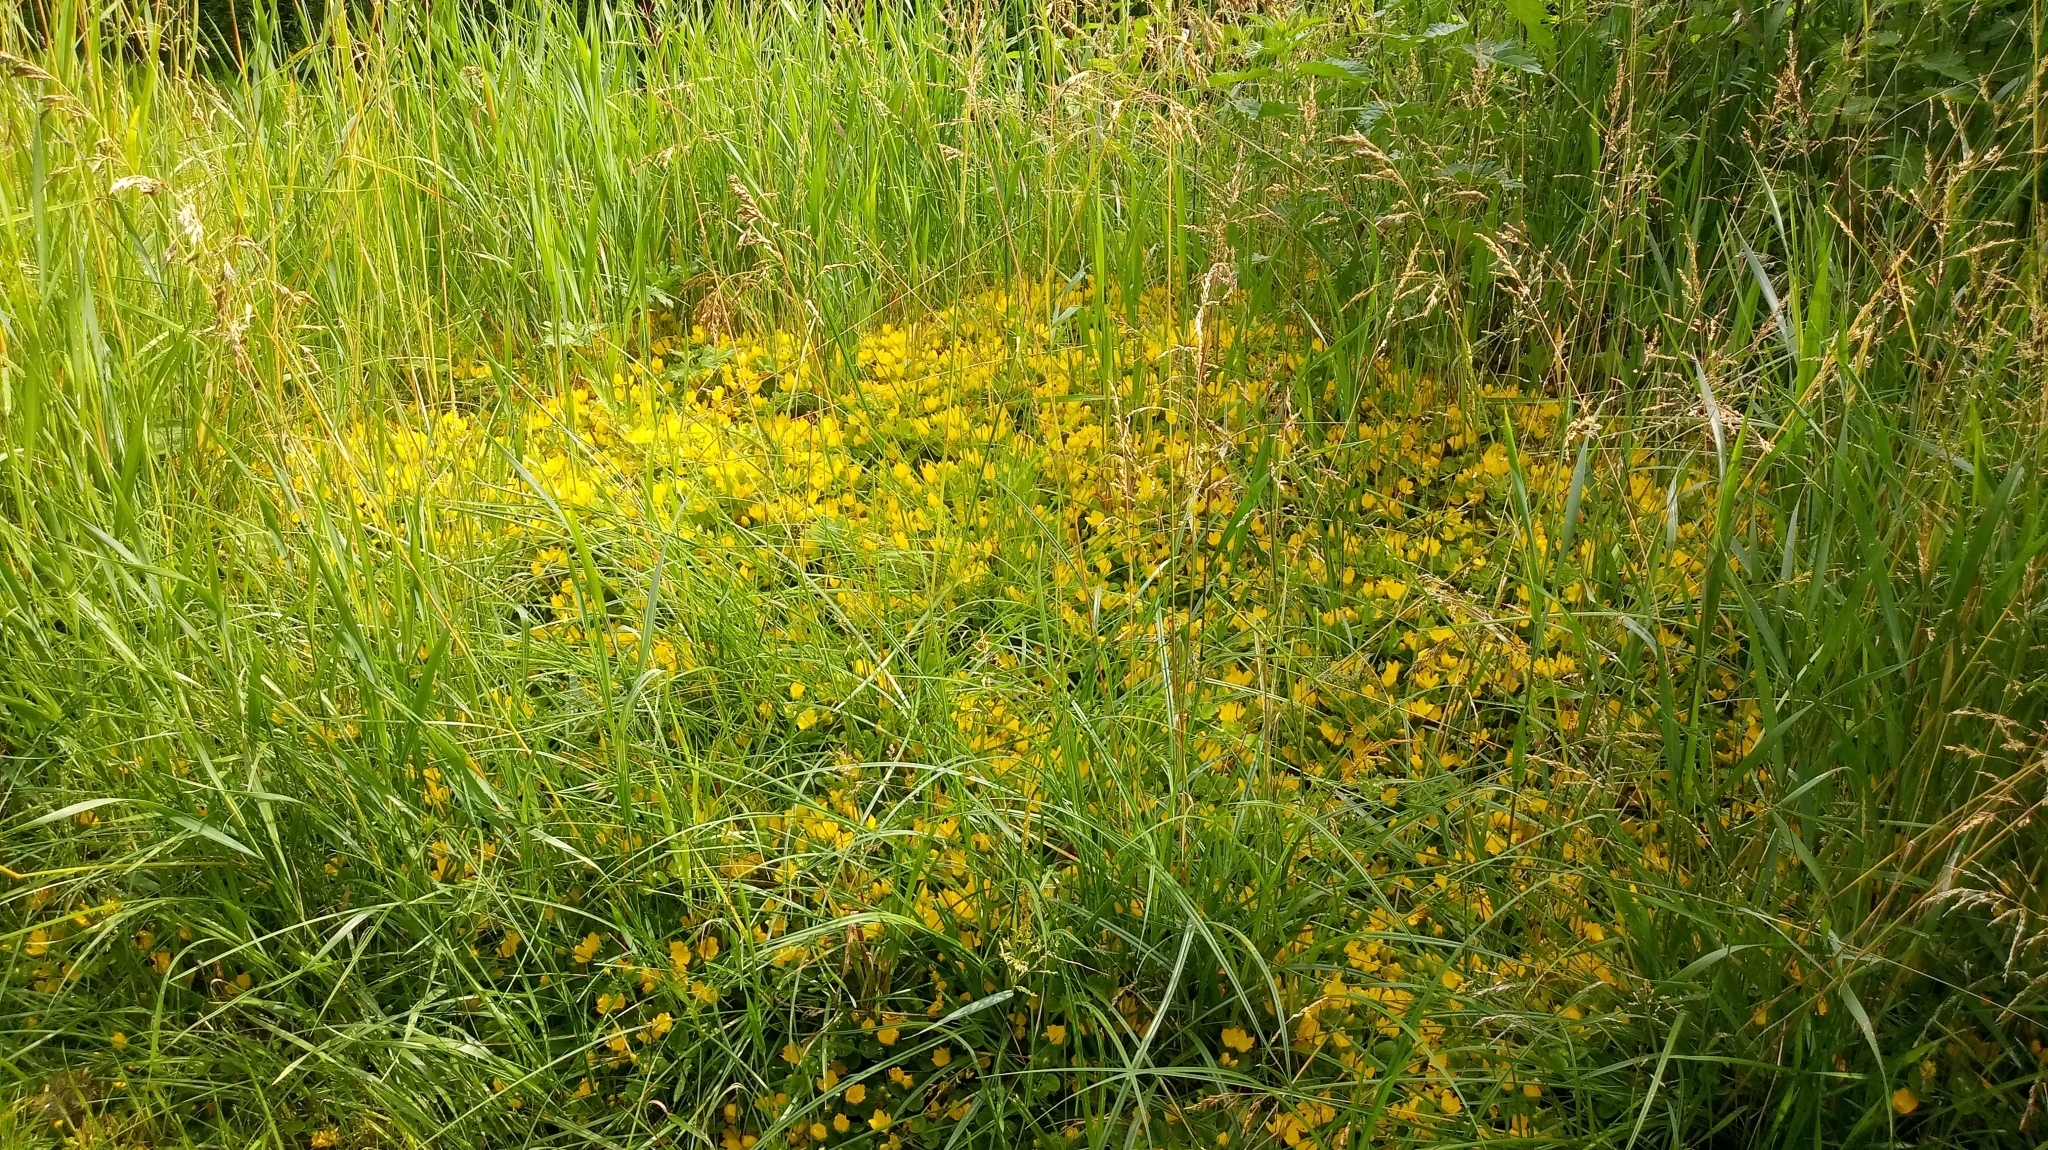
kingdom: Plantae
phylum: Tracheophyta
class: Magnoliopsida
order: Ericales
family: Primulaceae
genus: Lysimachia
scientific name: Lysimachia nummularia
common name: Moneywort
